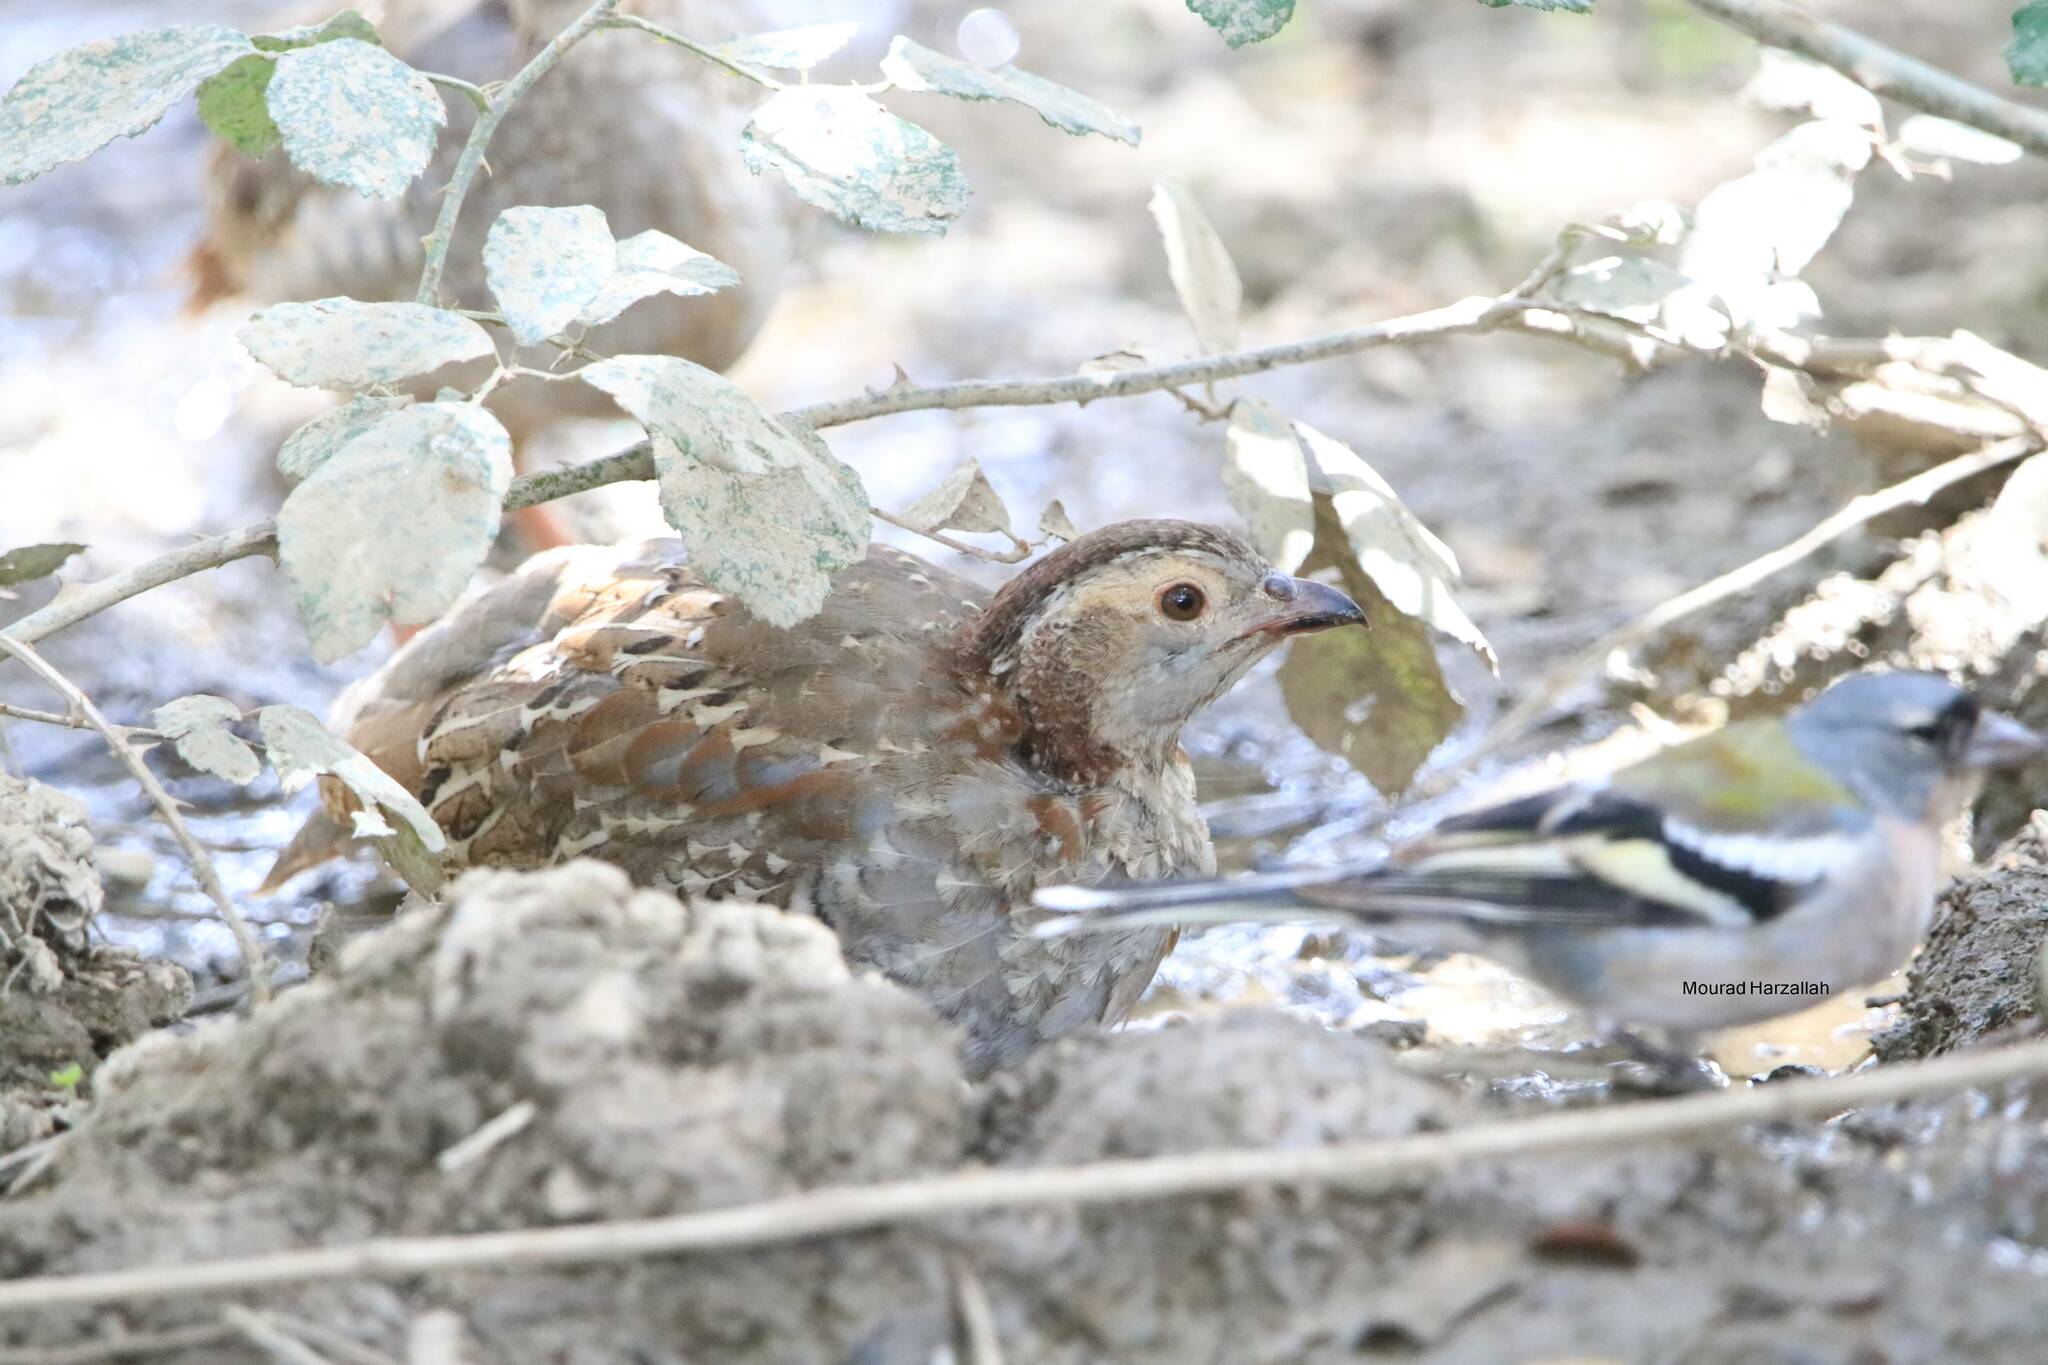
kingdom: Animalia
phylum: Chordata
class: Aves
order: Galliformes
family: Phasianidae
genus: Alectoris
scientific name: Alectoris barbara
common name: Barbary partridge
